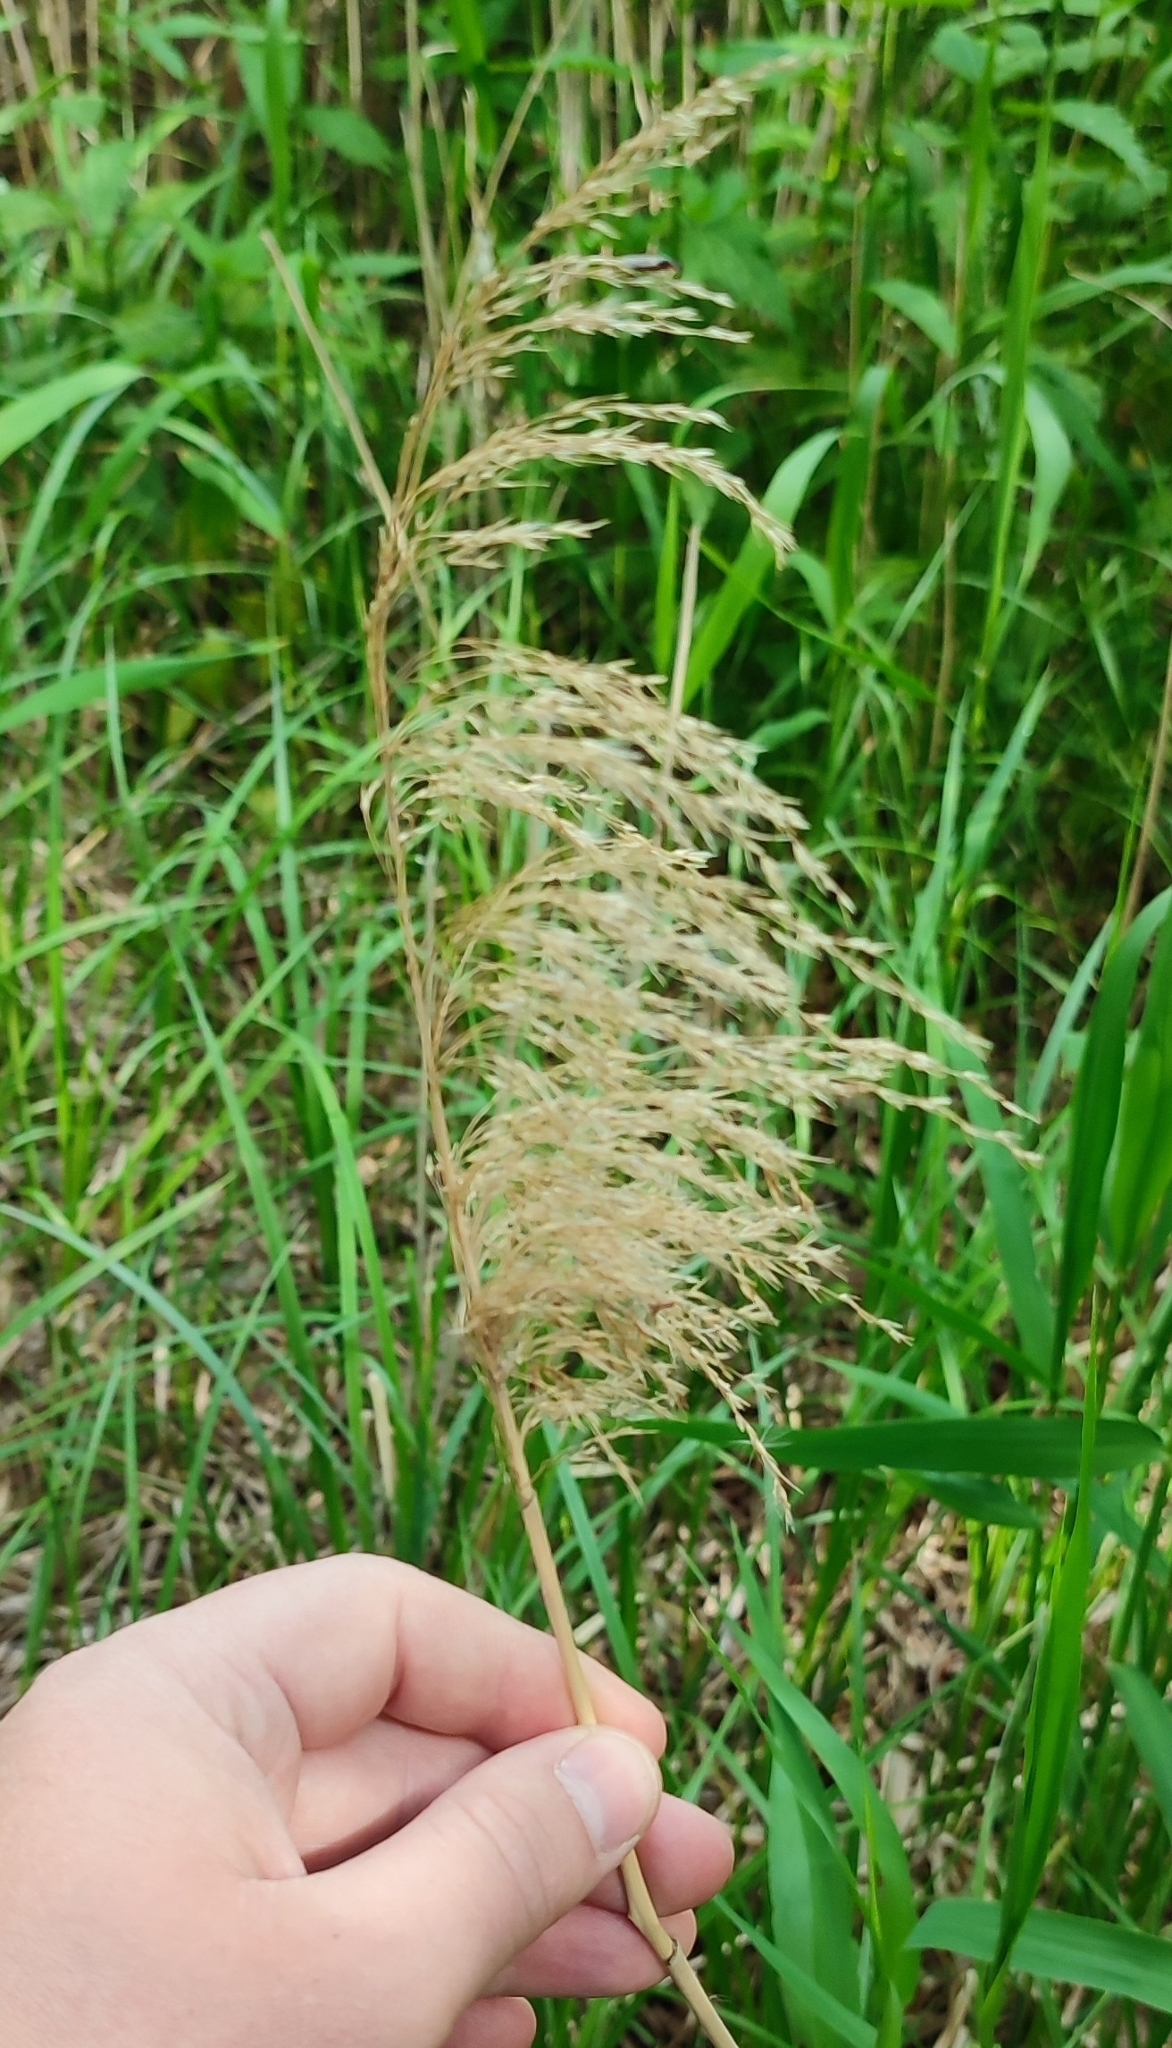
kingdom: Plantae
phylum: Tracheophyta
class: Liliopsida
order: Poales
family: Poaceae
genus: Phragmites
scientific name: Phragmites australis
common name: Common reed
